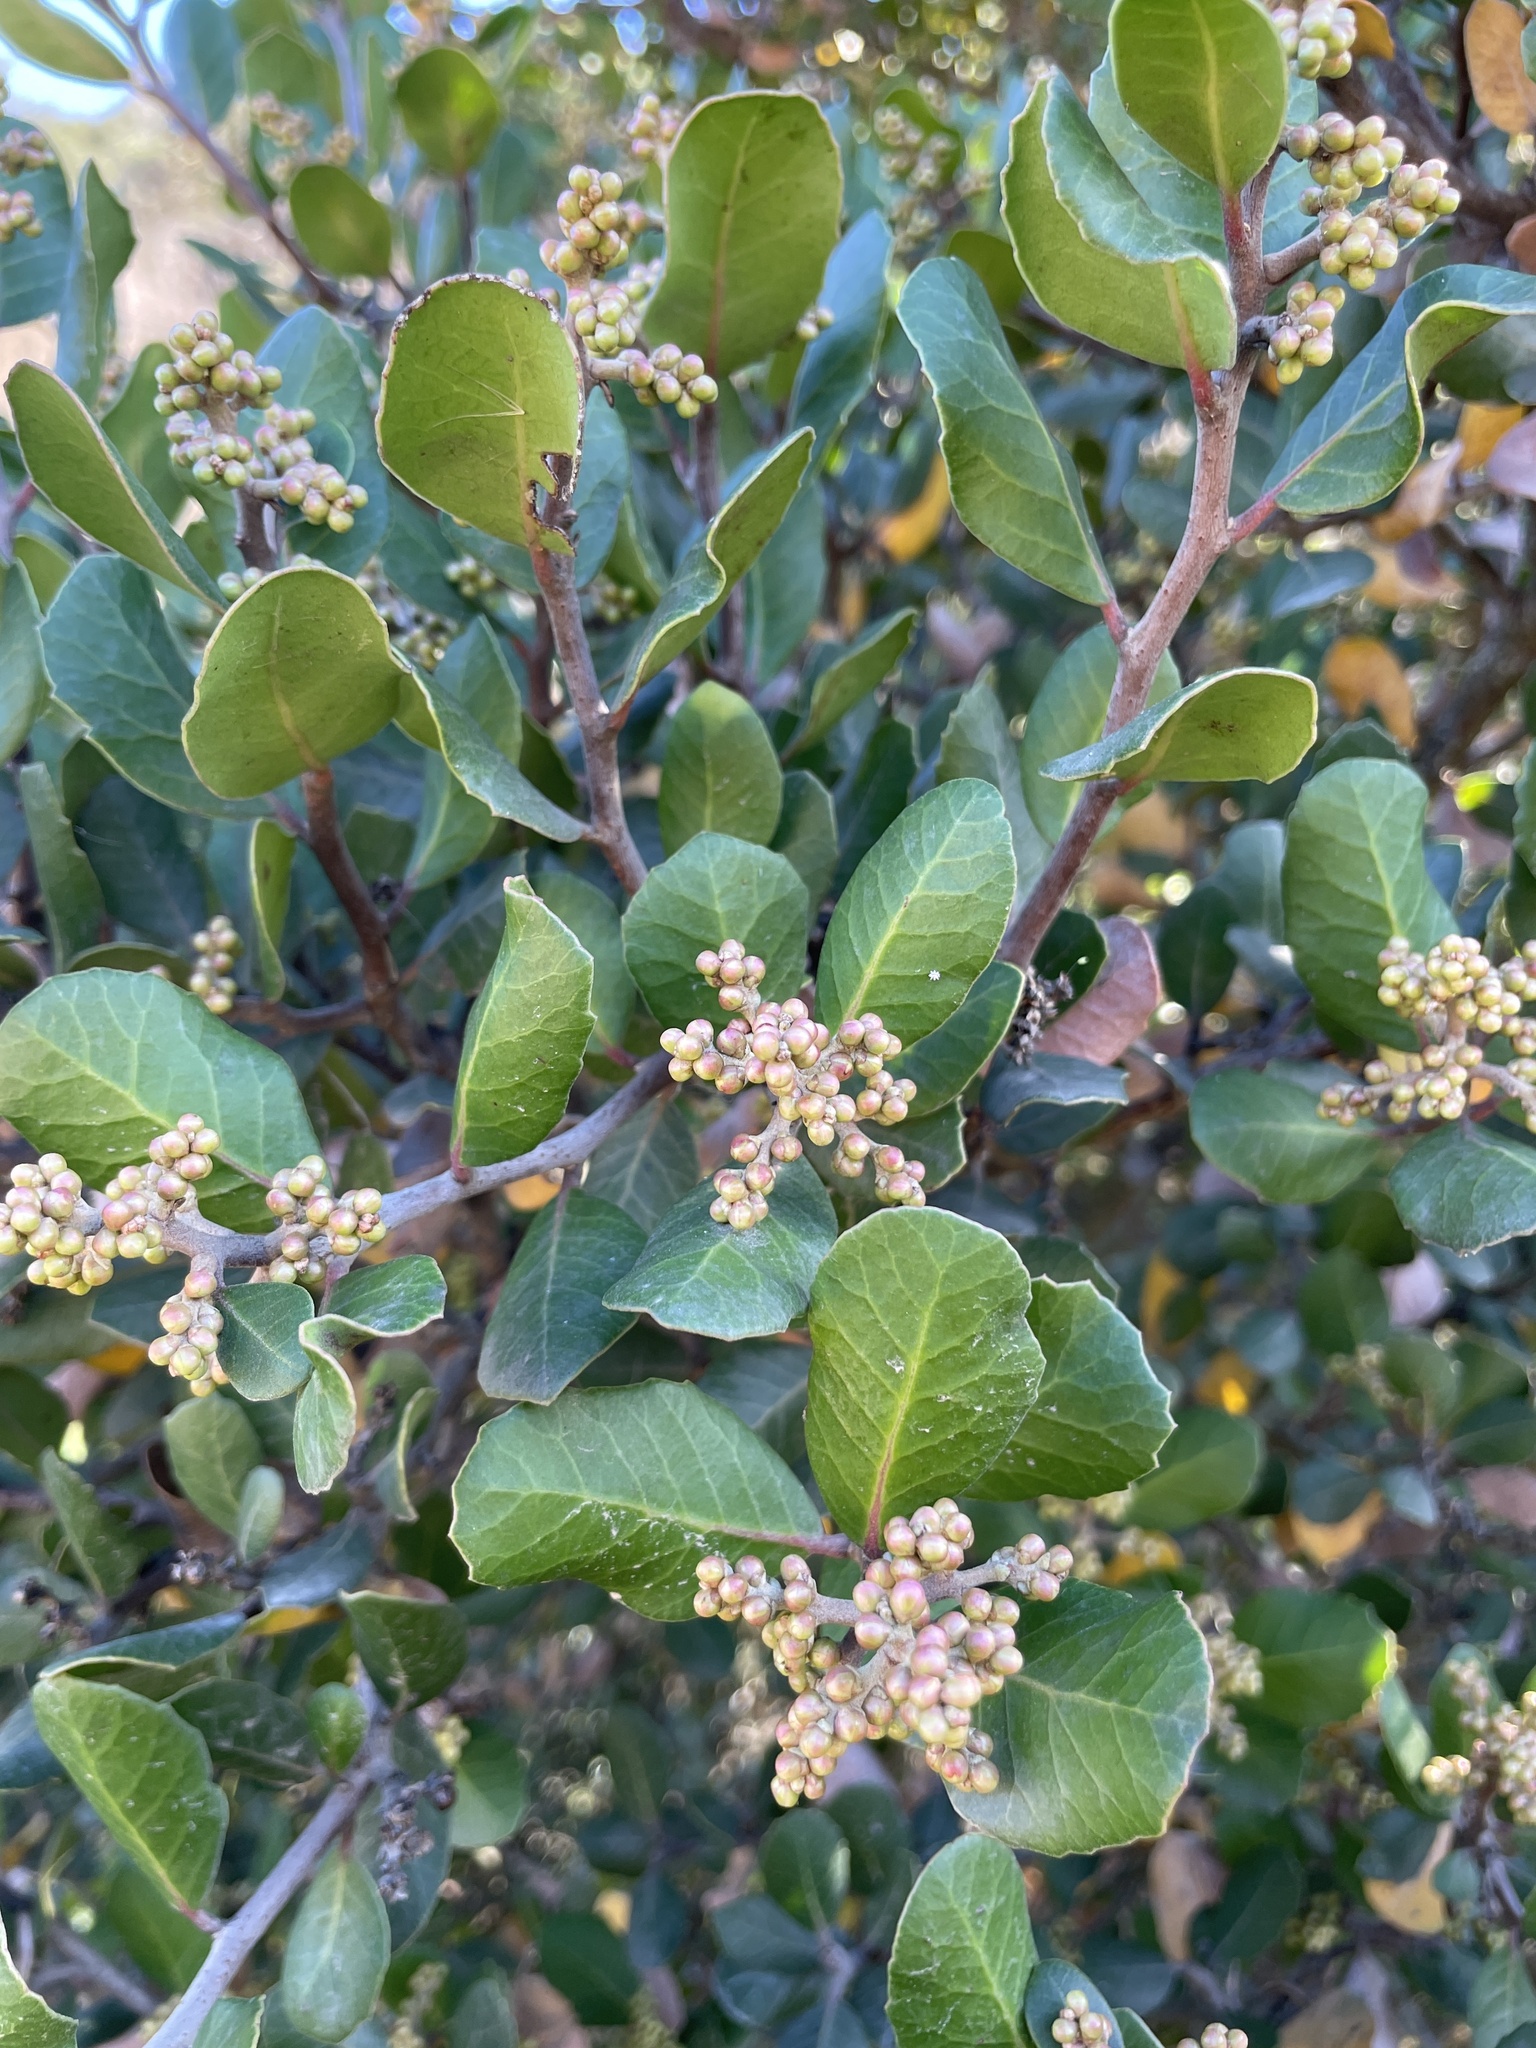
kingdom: Plantae
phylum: Tracheophyta
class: Magnoliopsida
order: Sapindales
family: Anacardiaceae
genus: Rhus
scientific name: Rhus integrifolia
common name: Lemonade sumac
